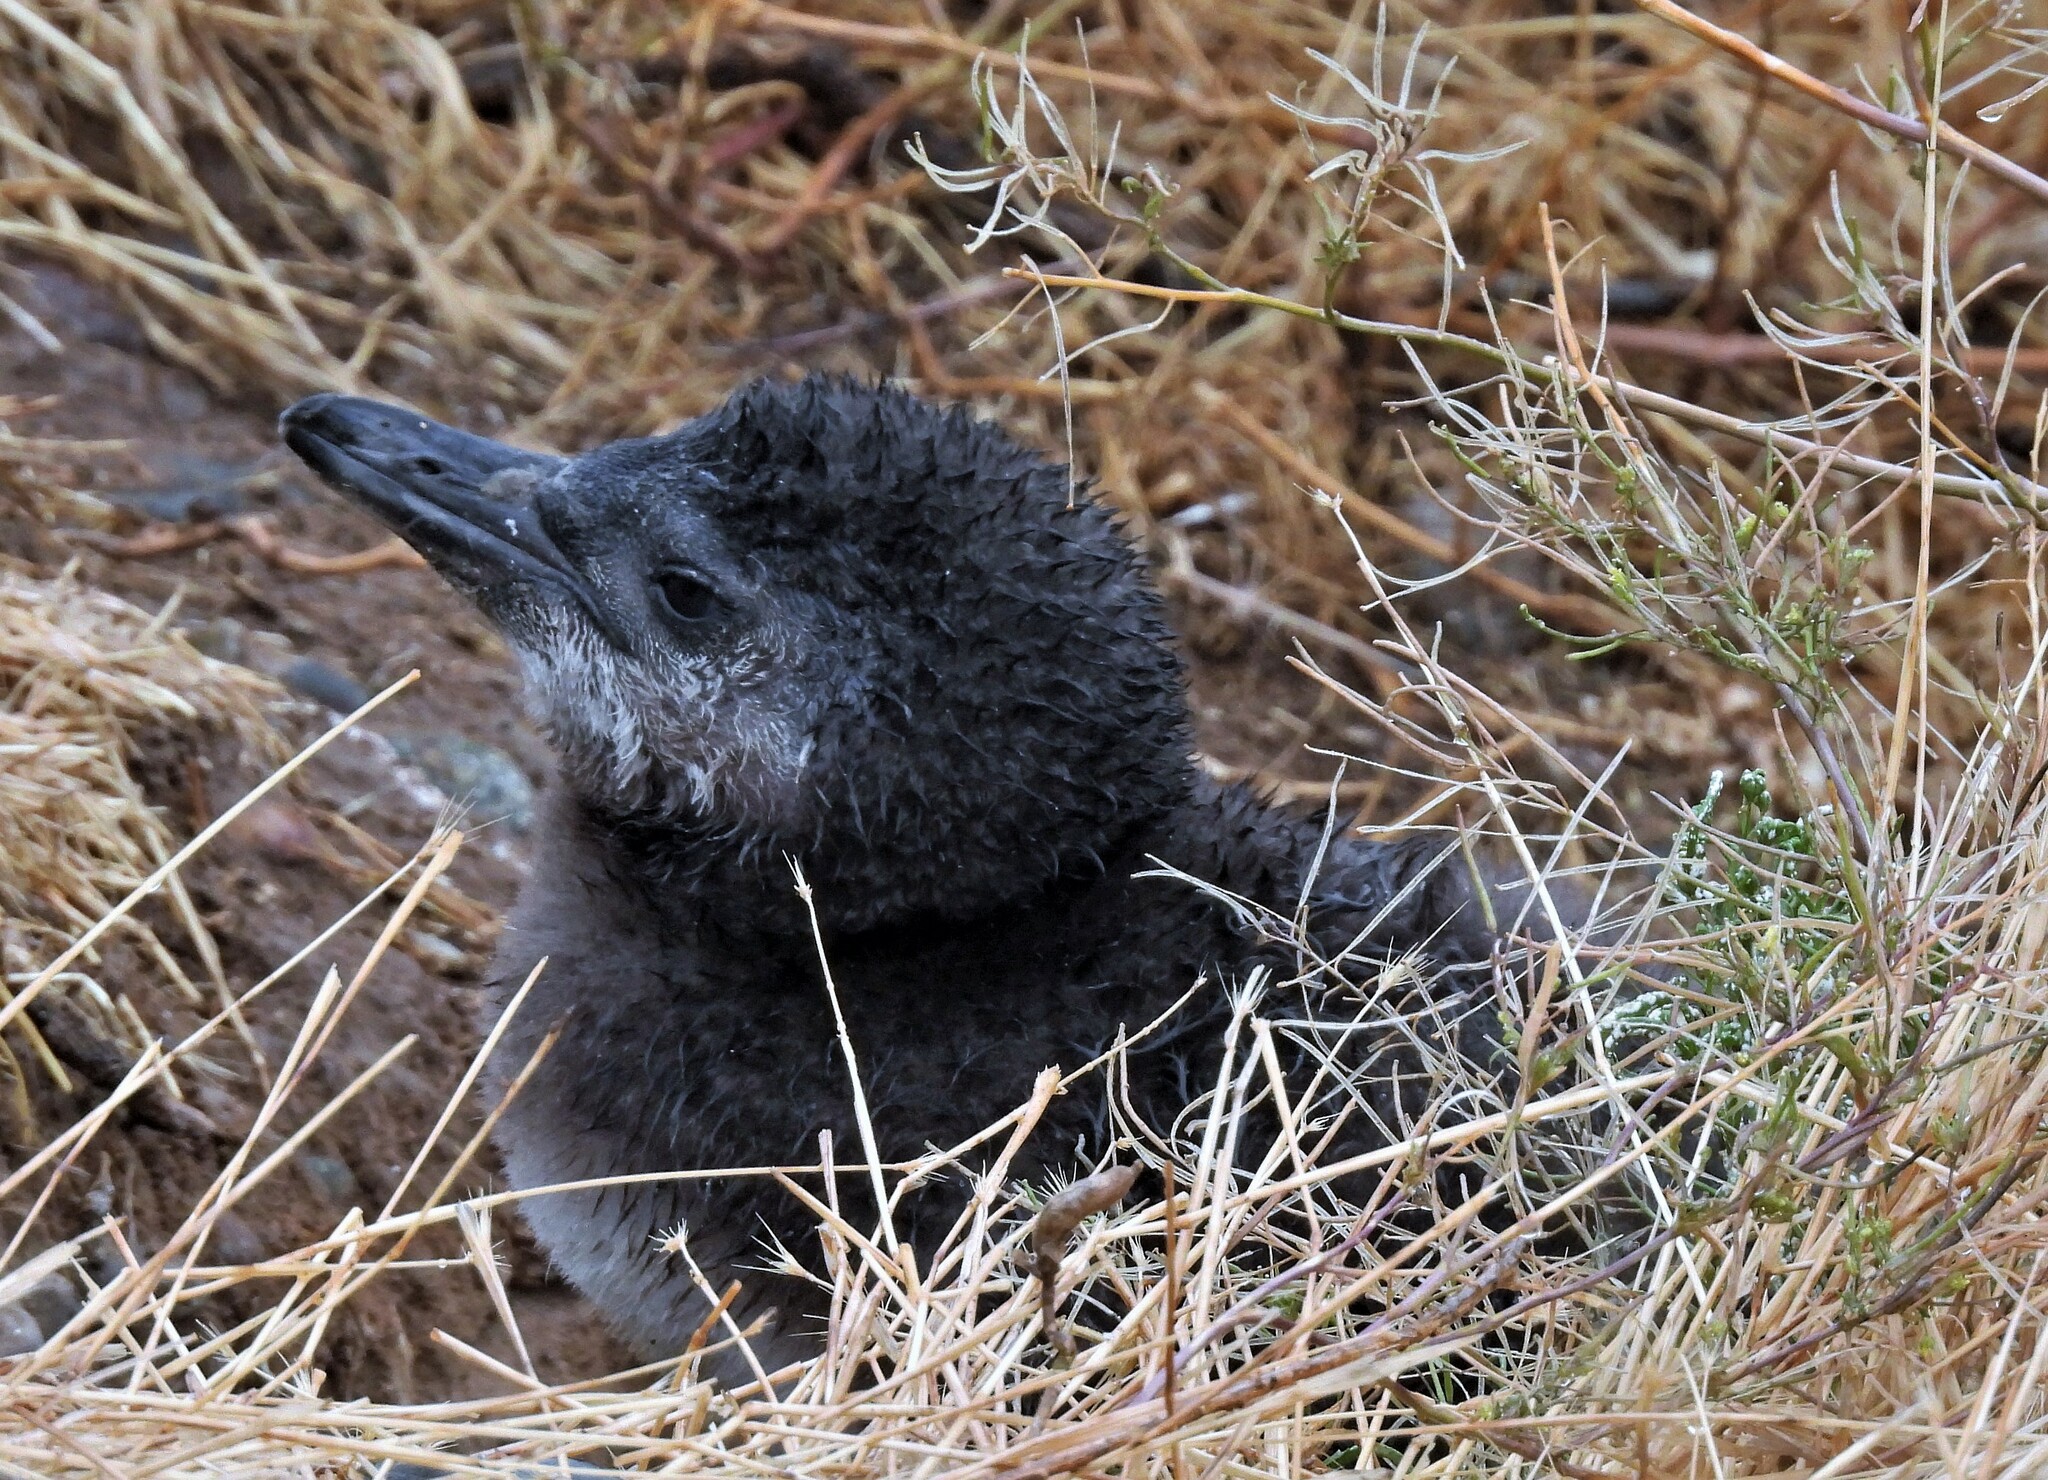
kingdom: Animalia
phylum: Chordata
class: Aves
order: Sphenisciformes
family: Spheniscidae
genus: Spheniscus
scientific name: Spheniscus magellanicus
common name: Magellanic penguin
